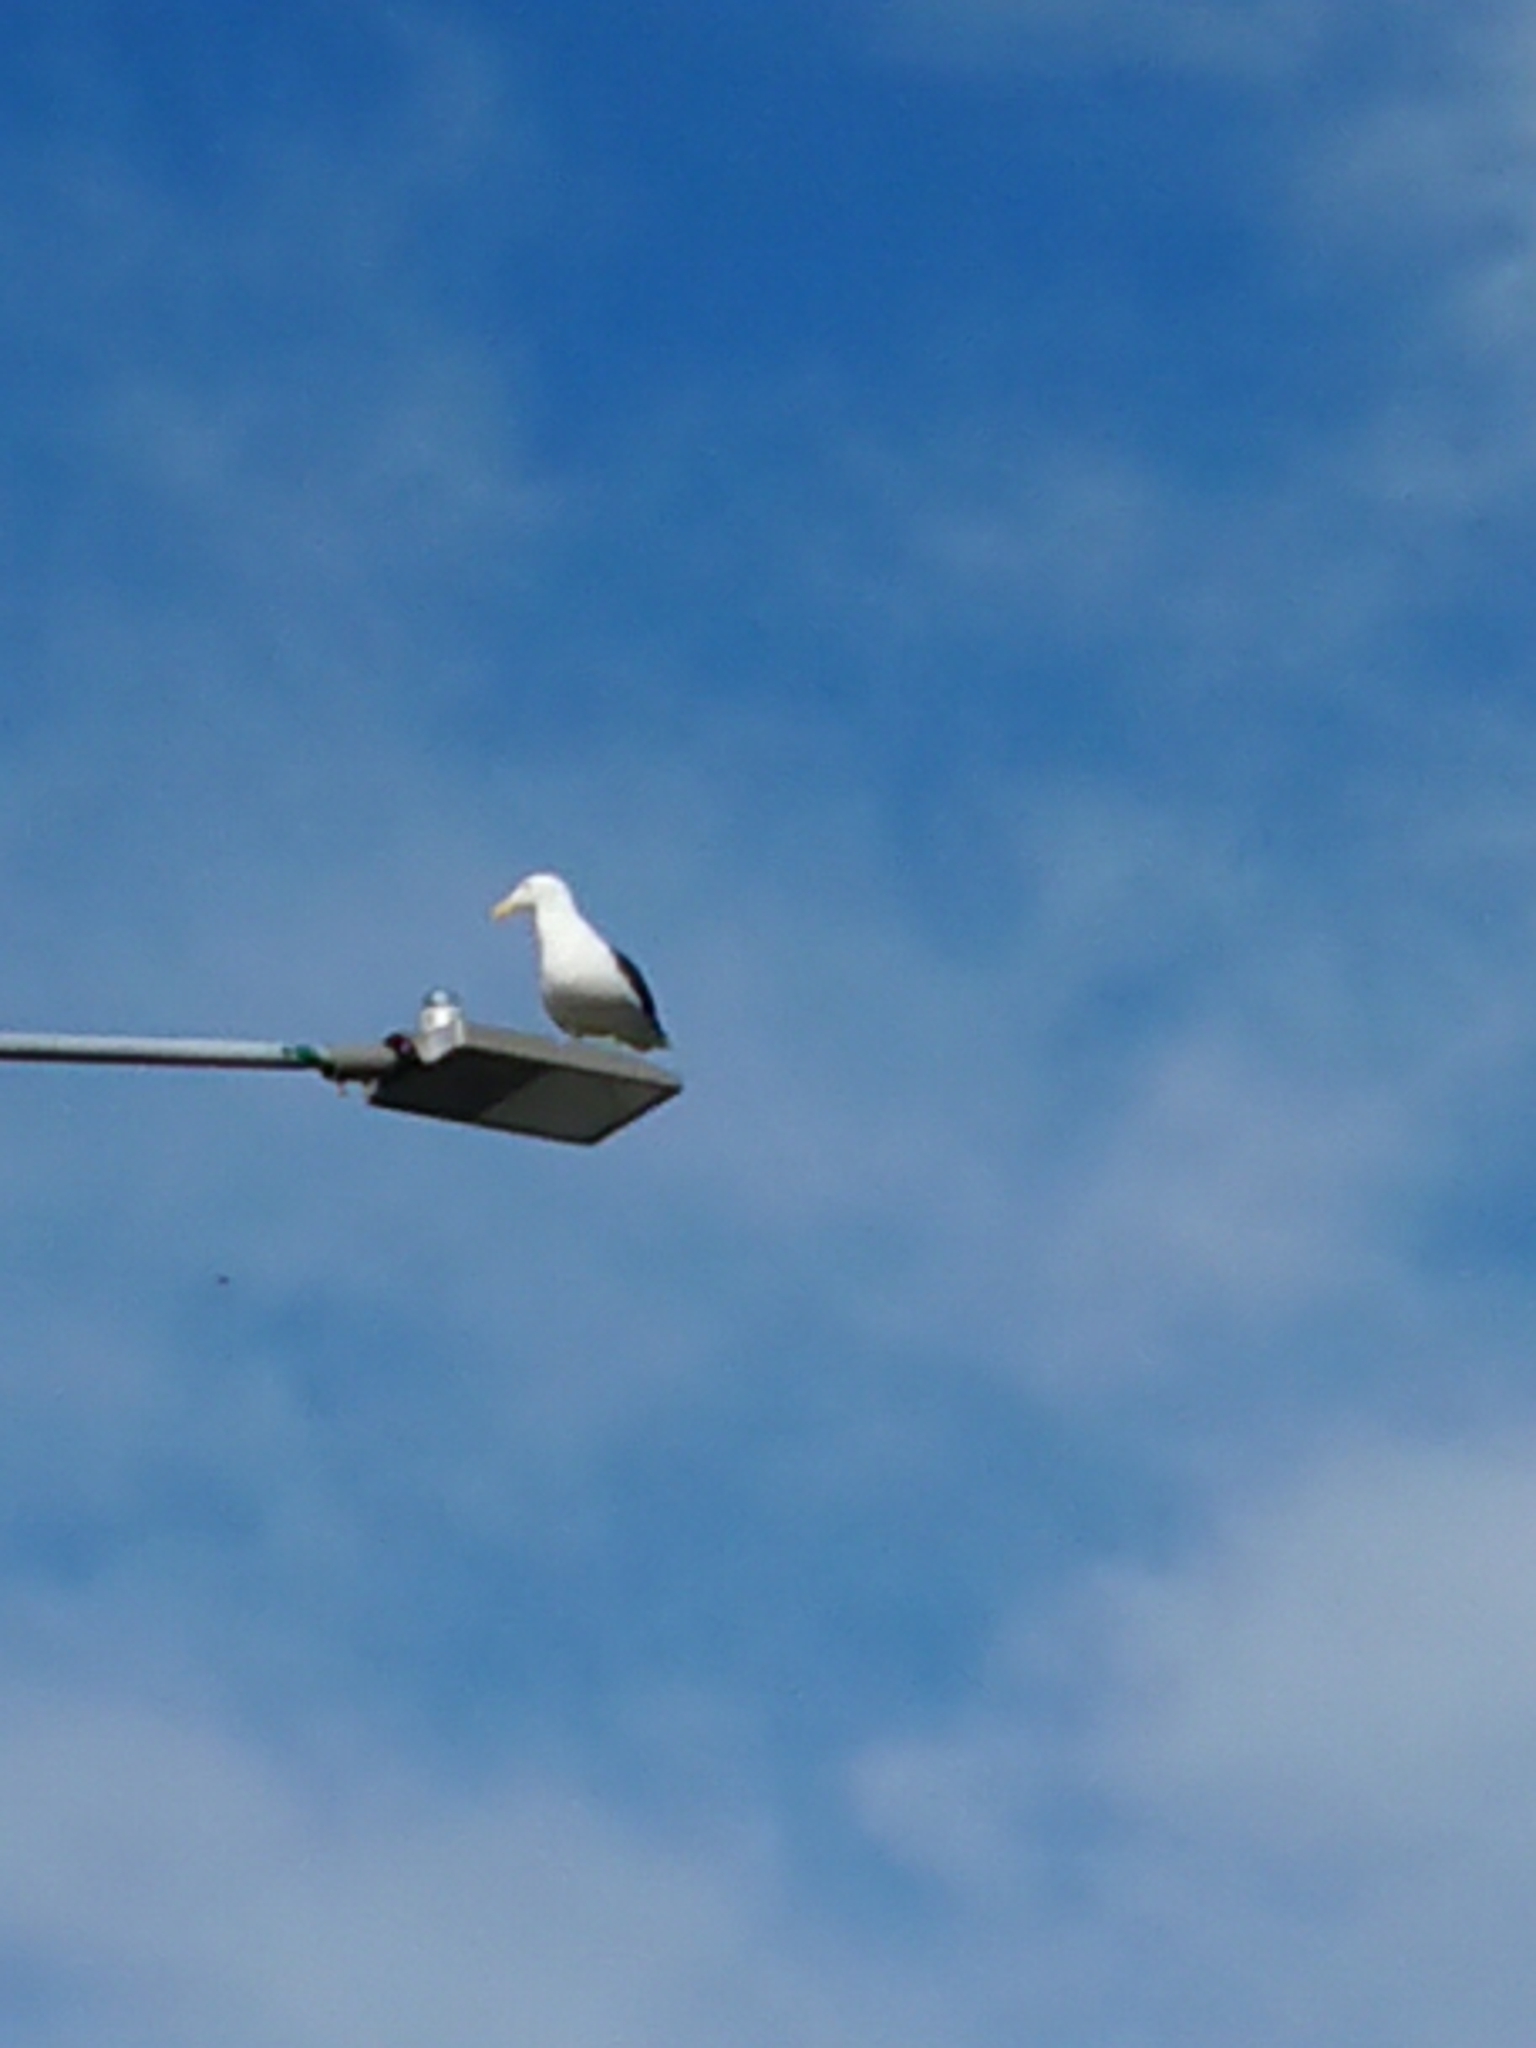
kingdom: Animalia
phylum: Chordata
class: Aves
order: Charadriiformes
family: Laridae
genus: Larus
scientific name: Larus dominicanus
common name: Kelp gull
